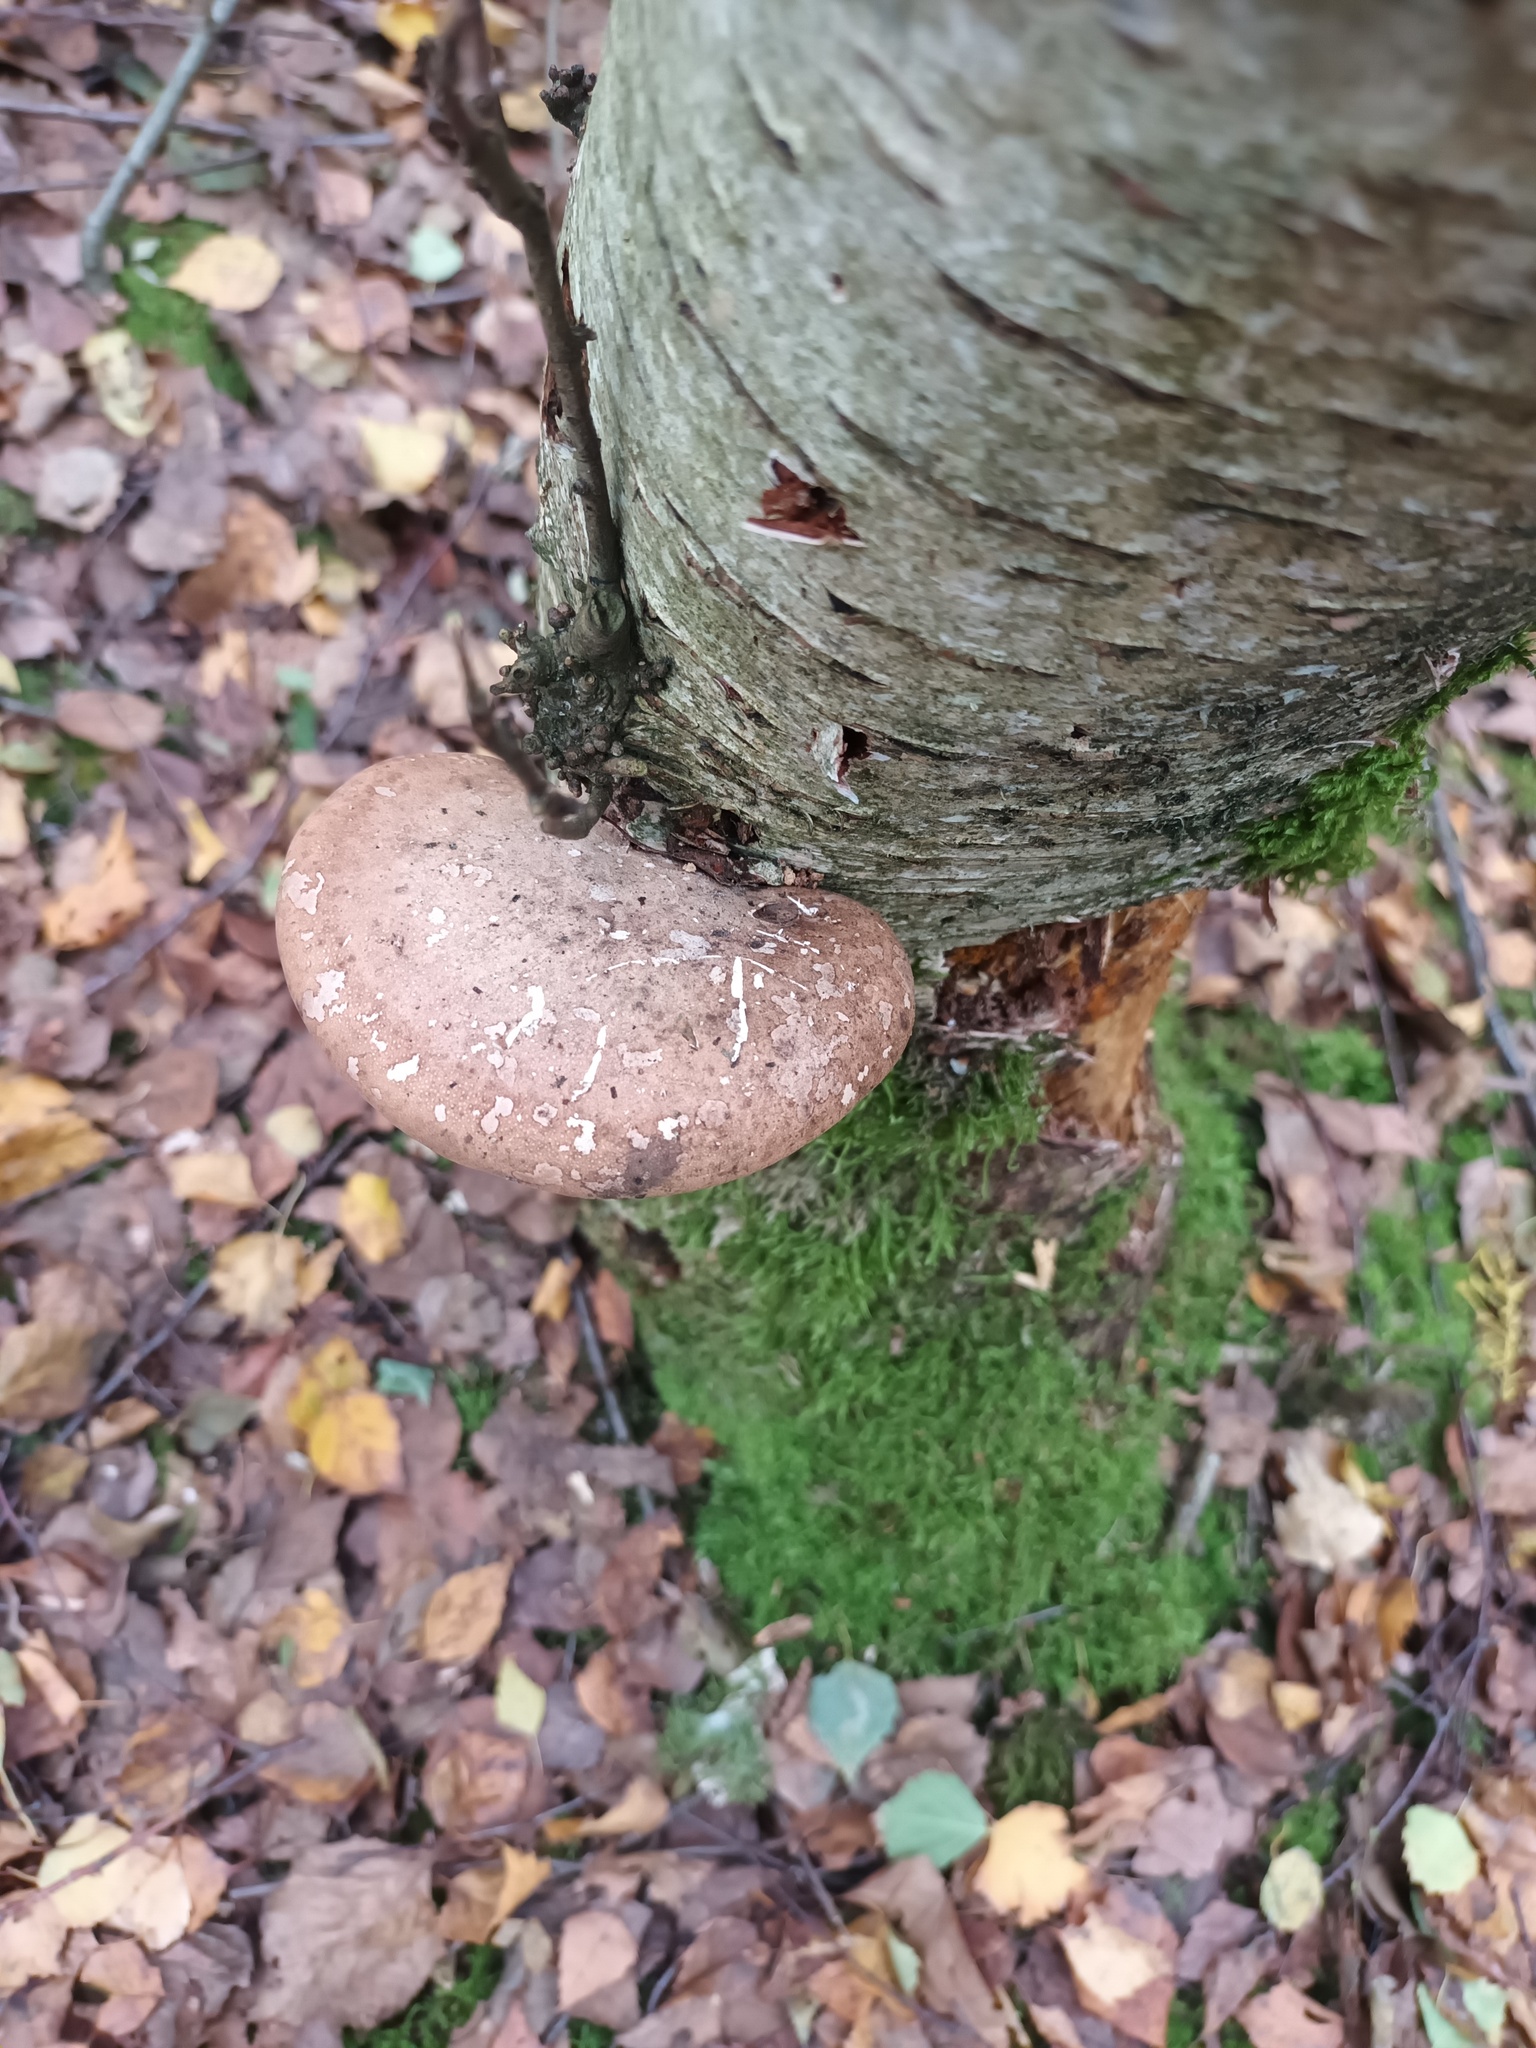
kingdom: Fungi
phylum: Basidiomycota
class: Agaricomycetes
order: Polyporales
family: Fomitopsidaceae
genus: Fomitopsis
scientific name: Fomitopsis betulina
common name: Birch polypore
